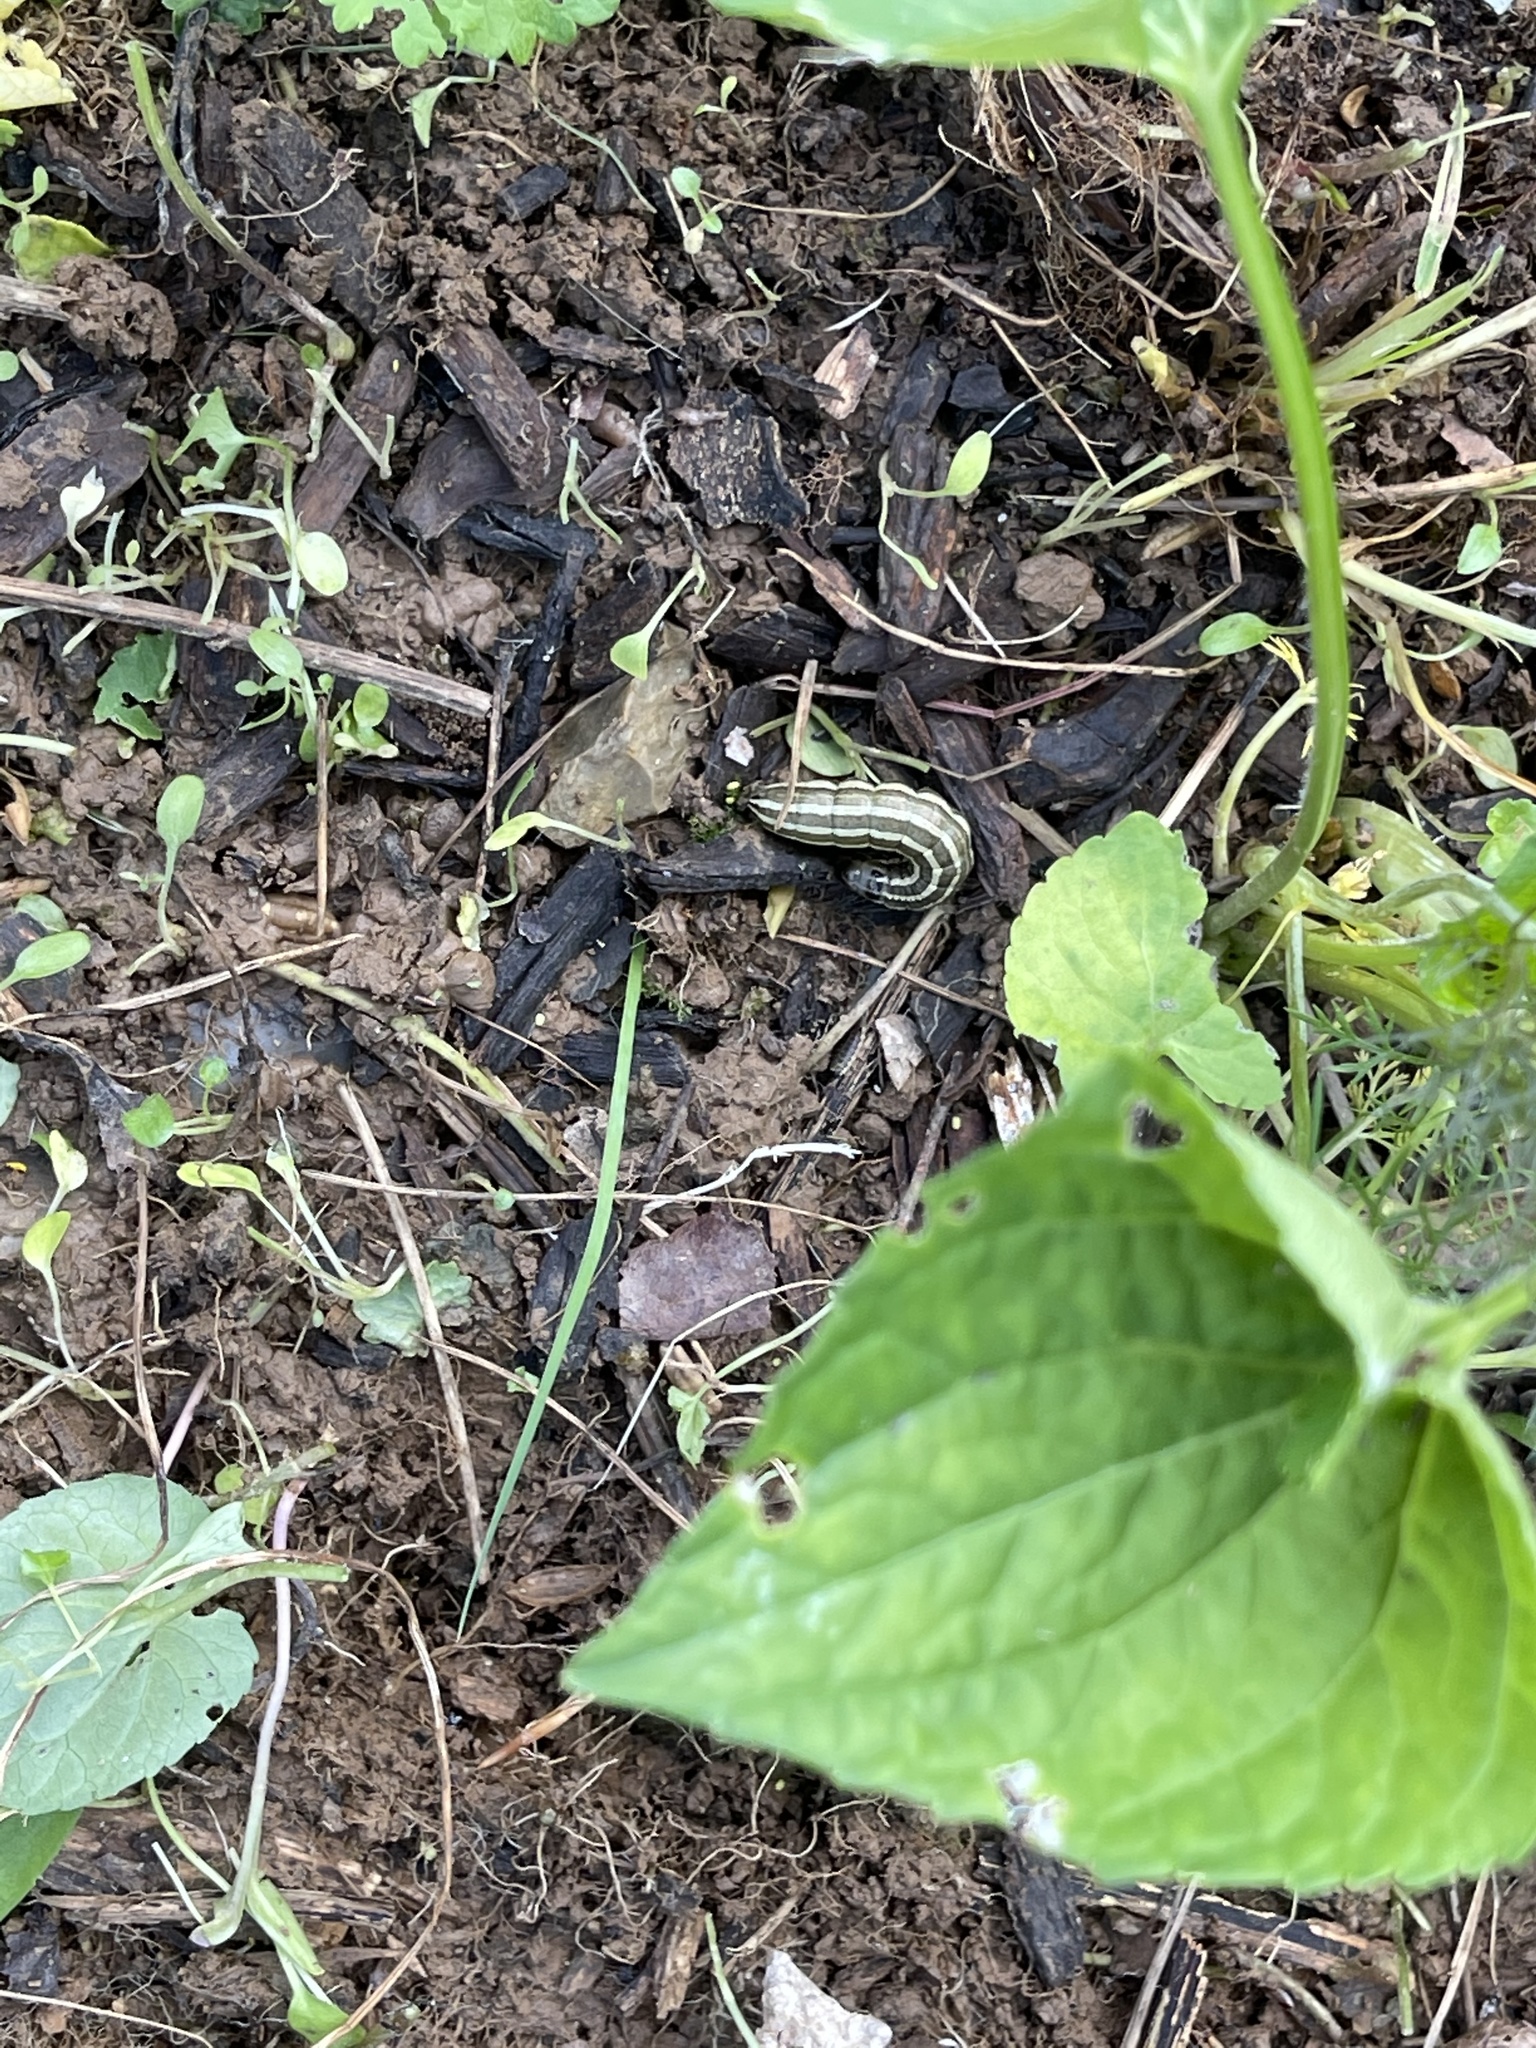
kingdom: Animalia
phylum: Arthropoda
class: Insecta
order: Lepidoptera
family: Noctuidae
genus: Nephelodes
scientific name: Nephelodes minians
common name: Bronzed cutworm
